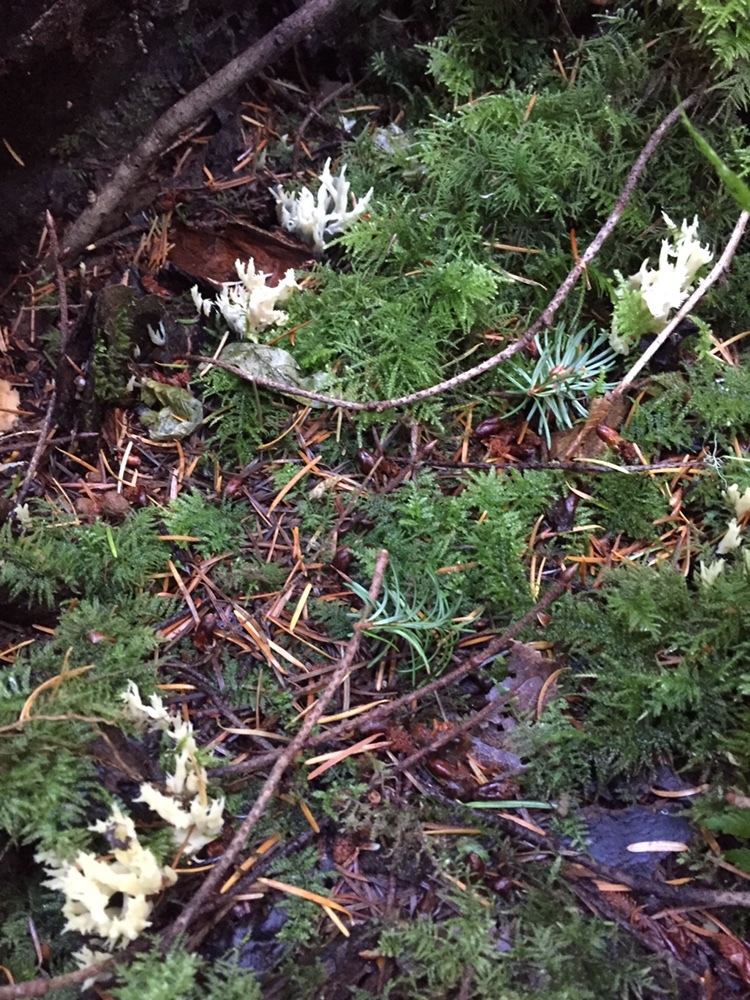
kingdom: Fungi
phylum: Basidiomycota
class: Agaricomycetes
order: Cantharellales
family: Hydnaceae
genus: Clavulina
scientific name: Clavulina coralloides
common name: Crested coral
